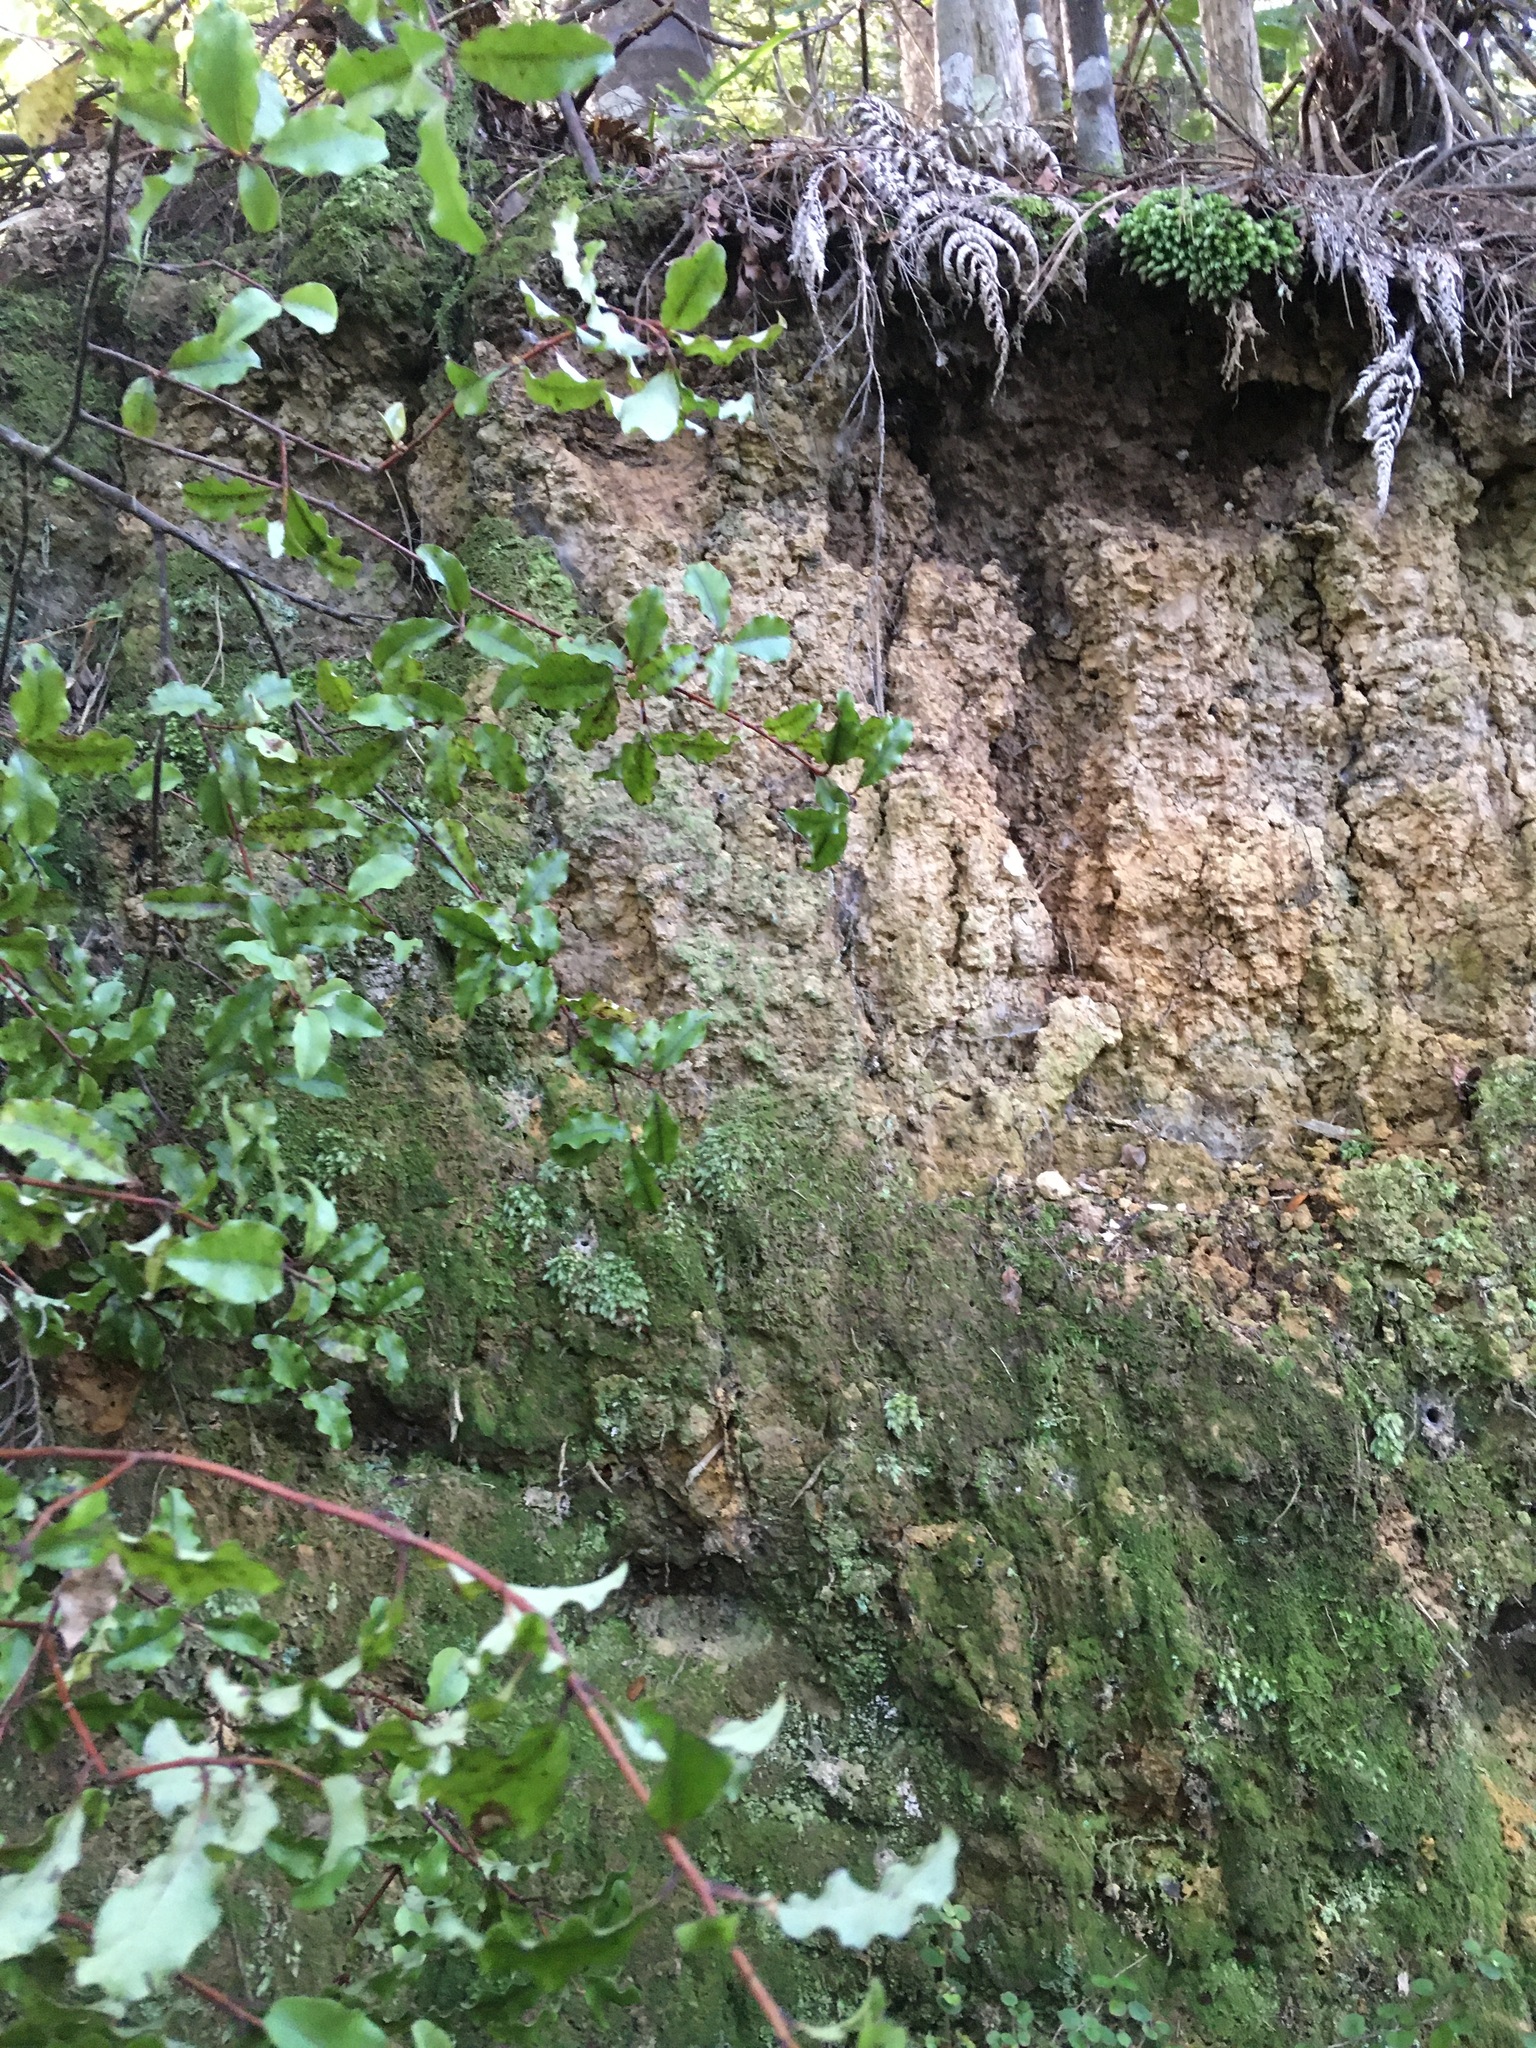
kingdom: Plantae
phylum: Bryophyta
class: Bryopsida
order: Dicranales
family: Leucobryaceae
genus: Leucobryum
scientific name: Leucobryum javense
